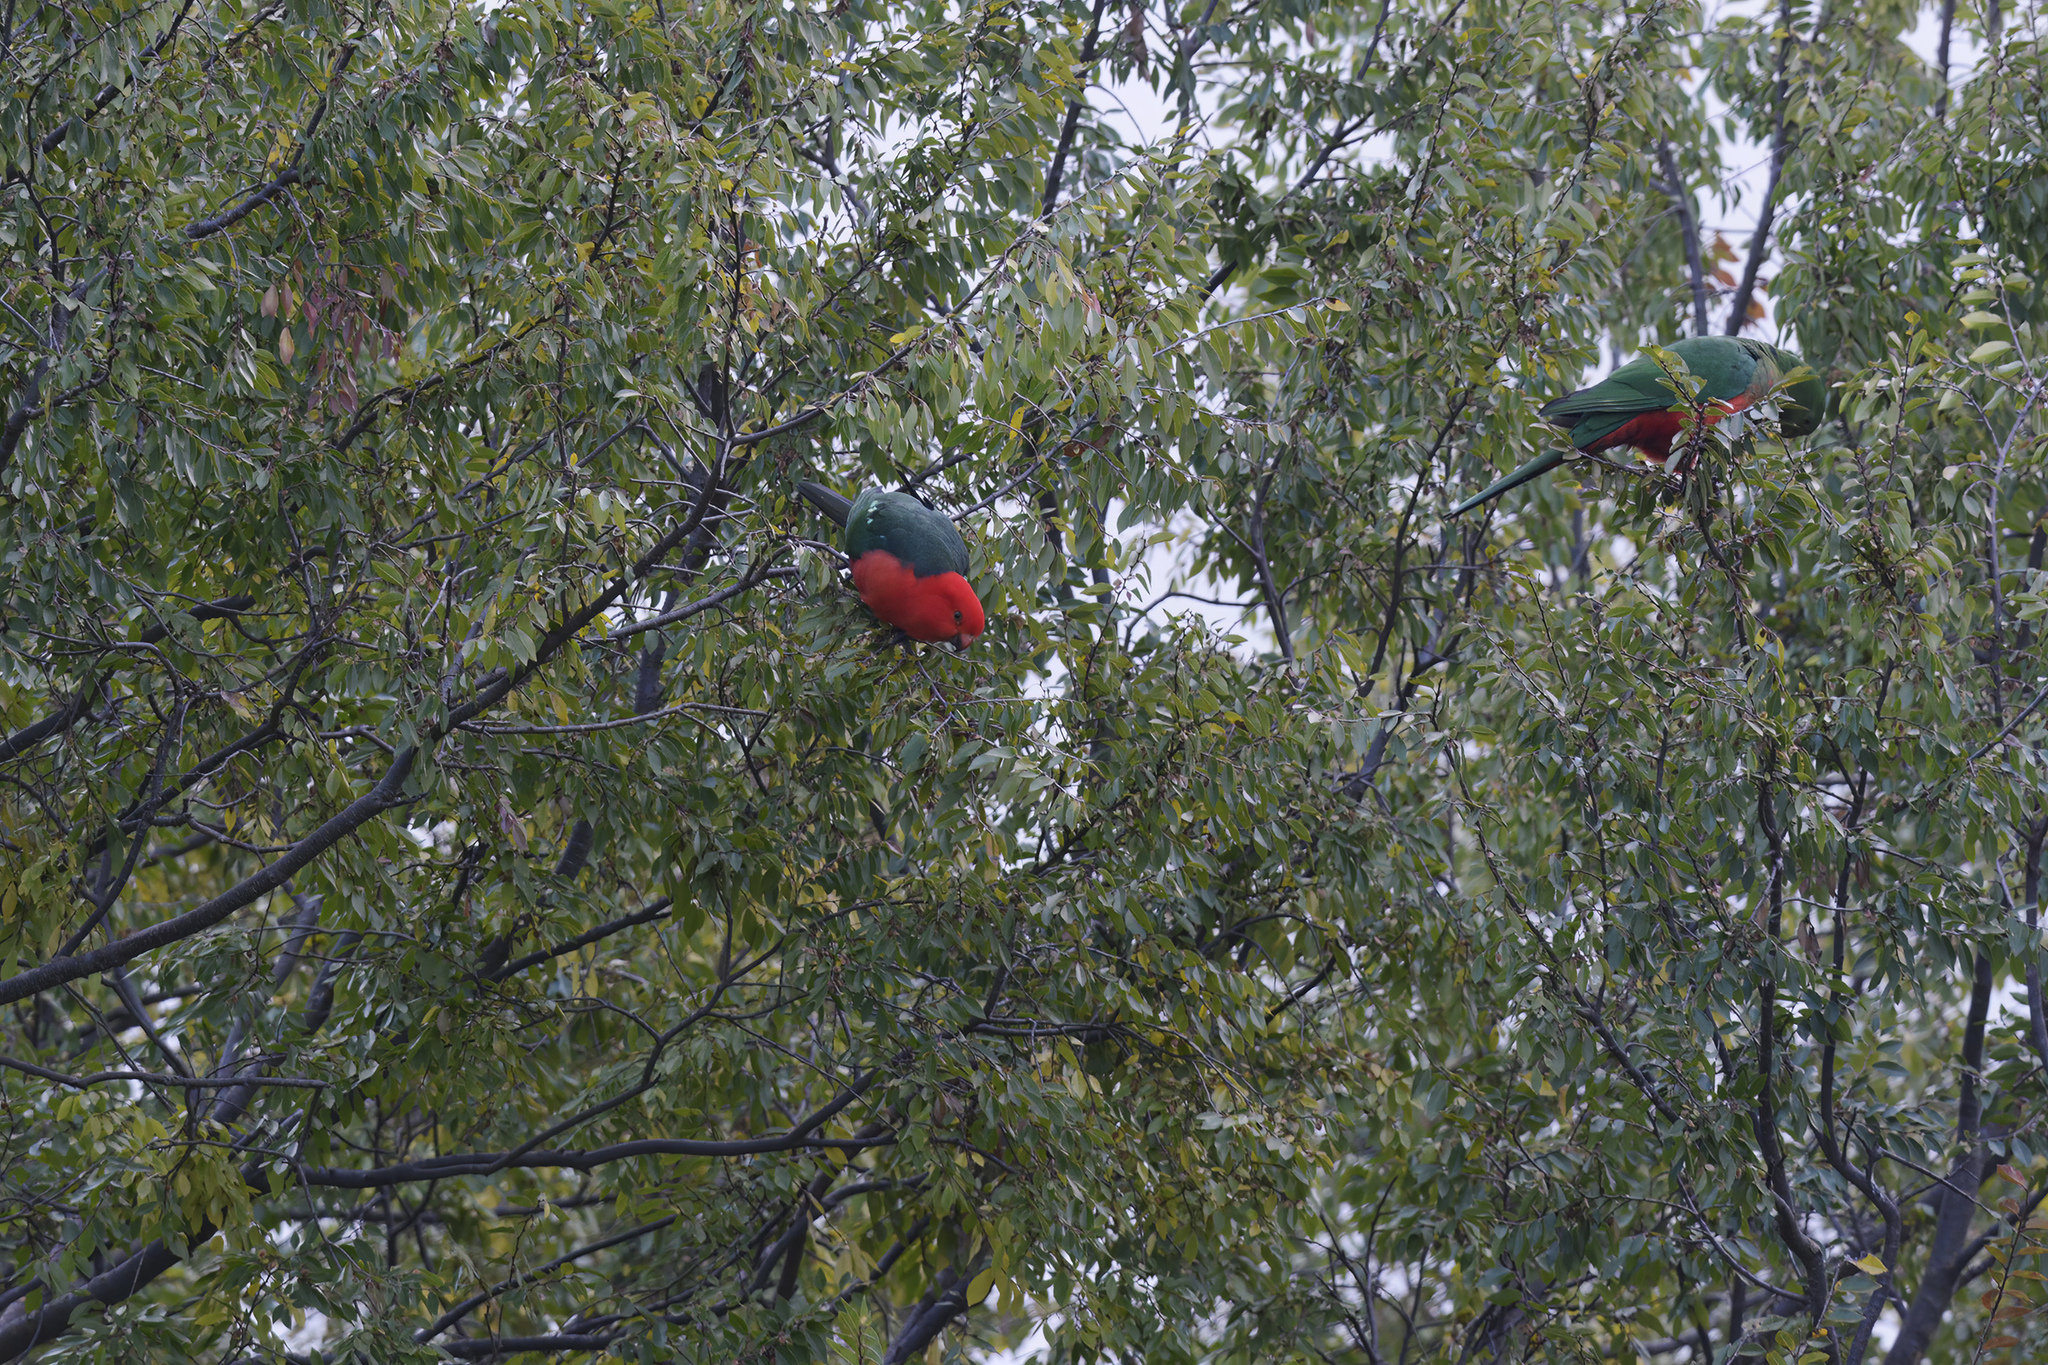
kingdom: Animalia
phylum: Chordata
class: Aves
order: Psittaciformes
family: Psittacidae
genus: Alisterus
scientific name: Alisterus scapularis
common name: Australian king parrot
